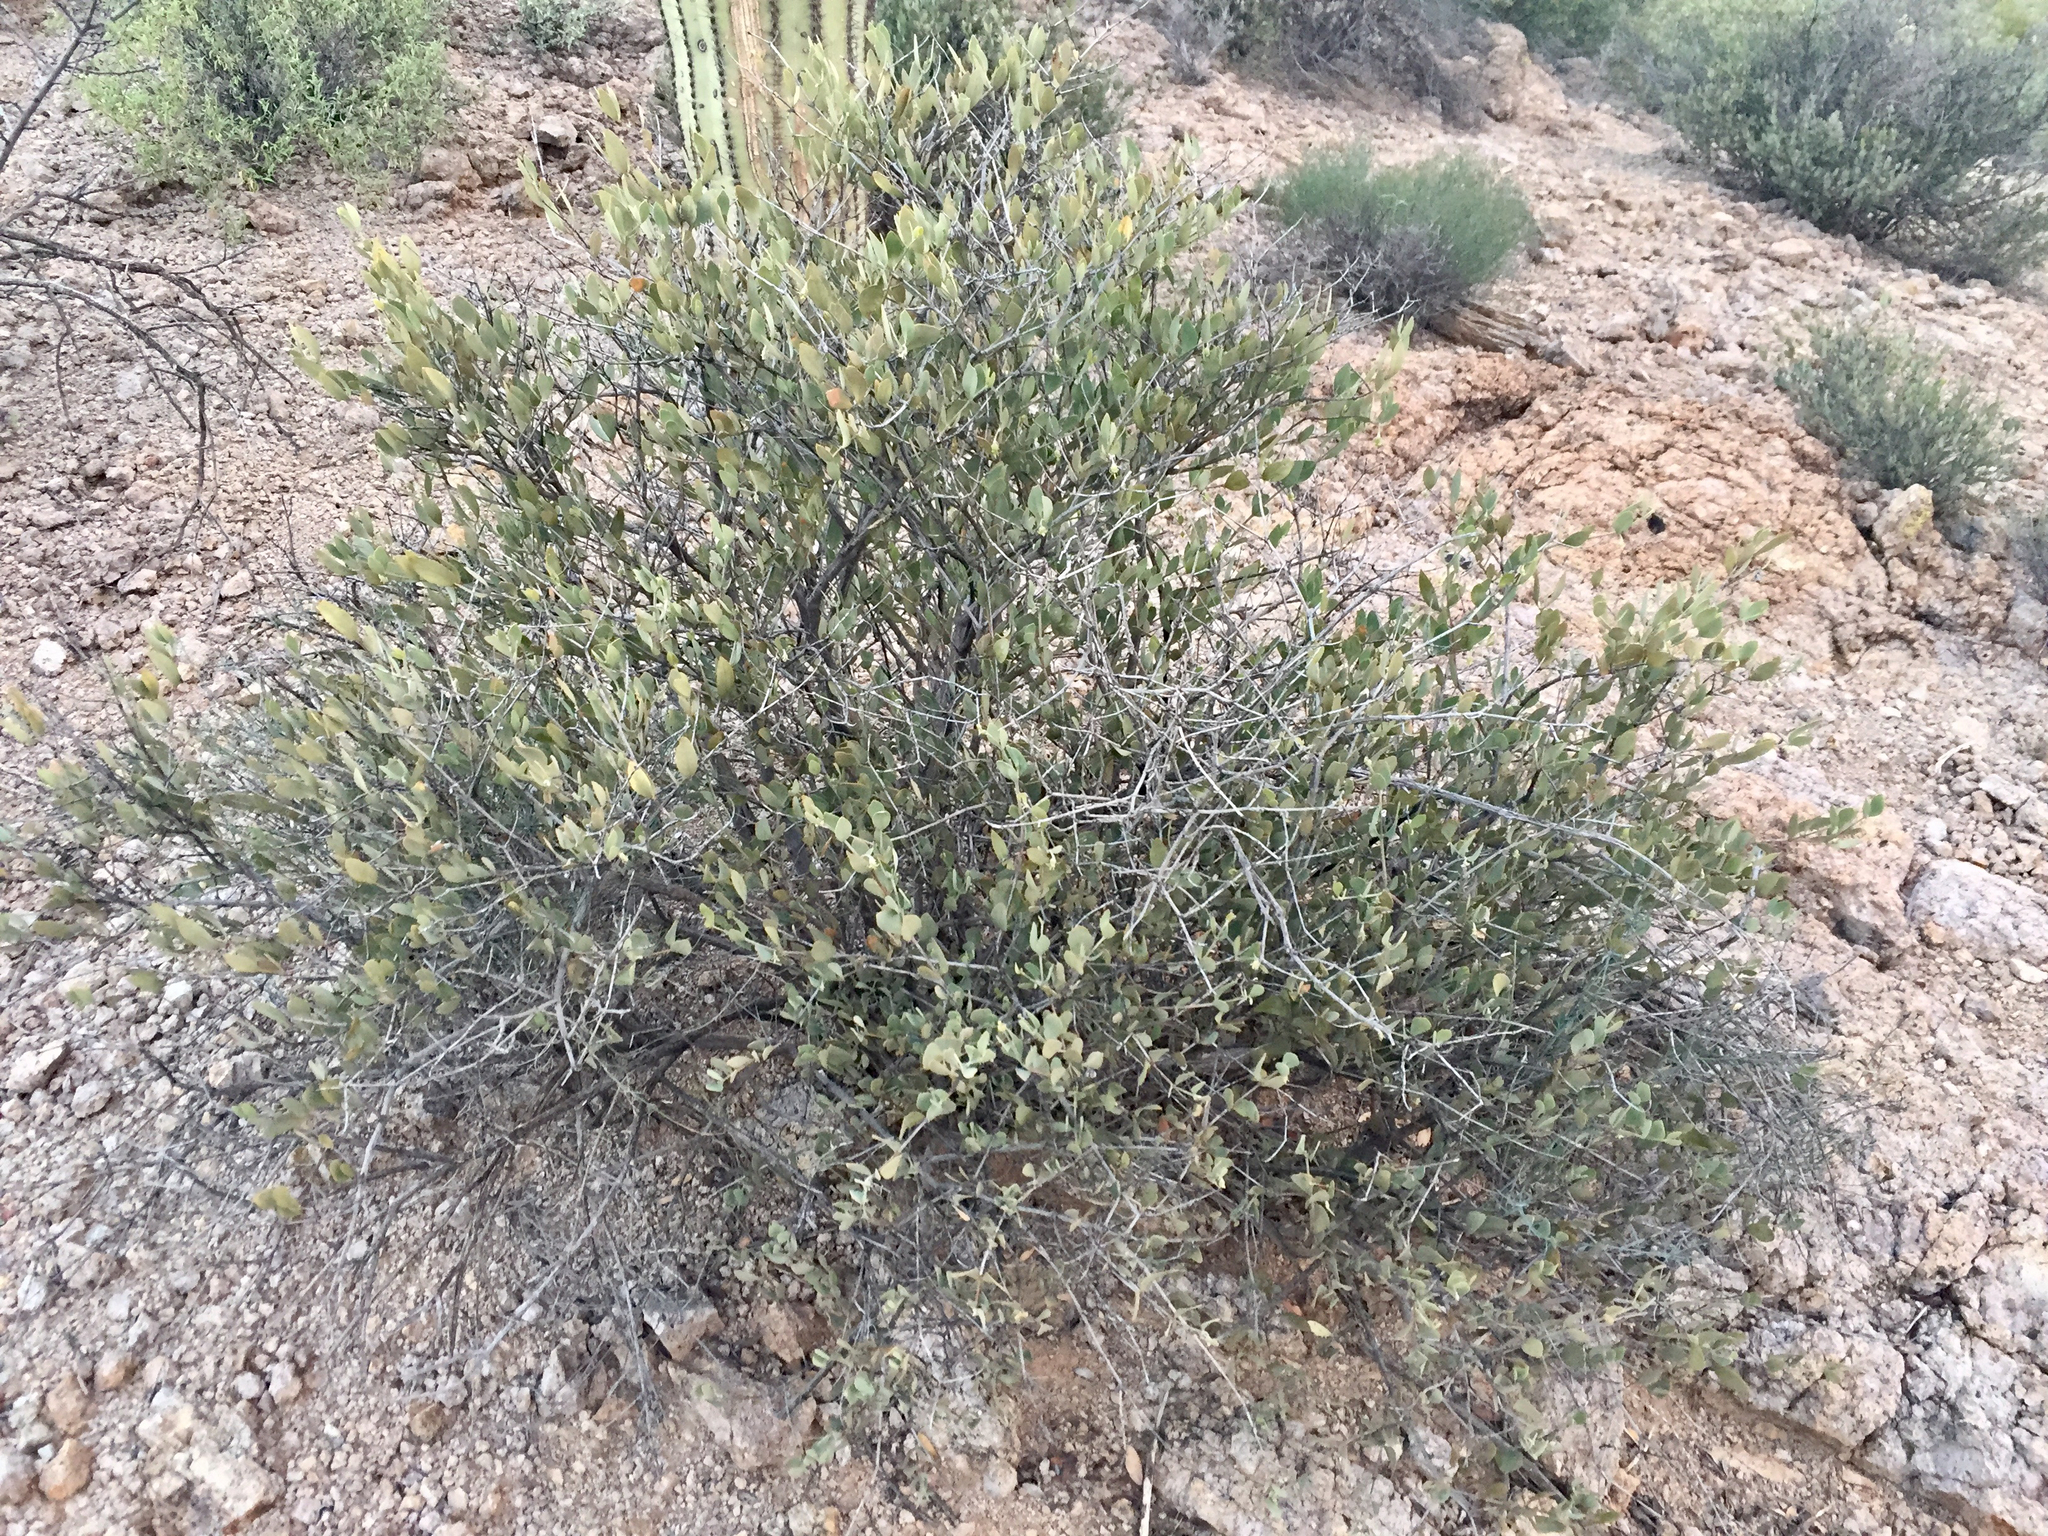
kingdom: Plantae
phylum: Tracheophyta
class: Magnoliopsida
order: Caryophyllales
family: Simmondsiaceae
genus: Simmondsia
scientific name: Simmondsia chinensis
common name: Jojoba
